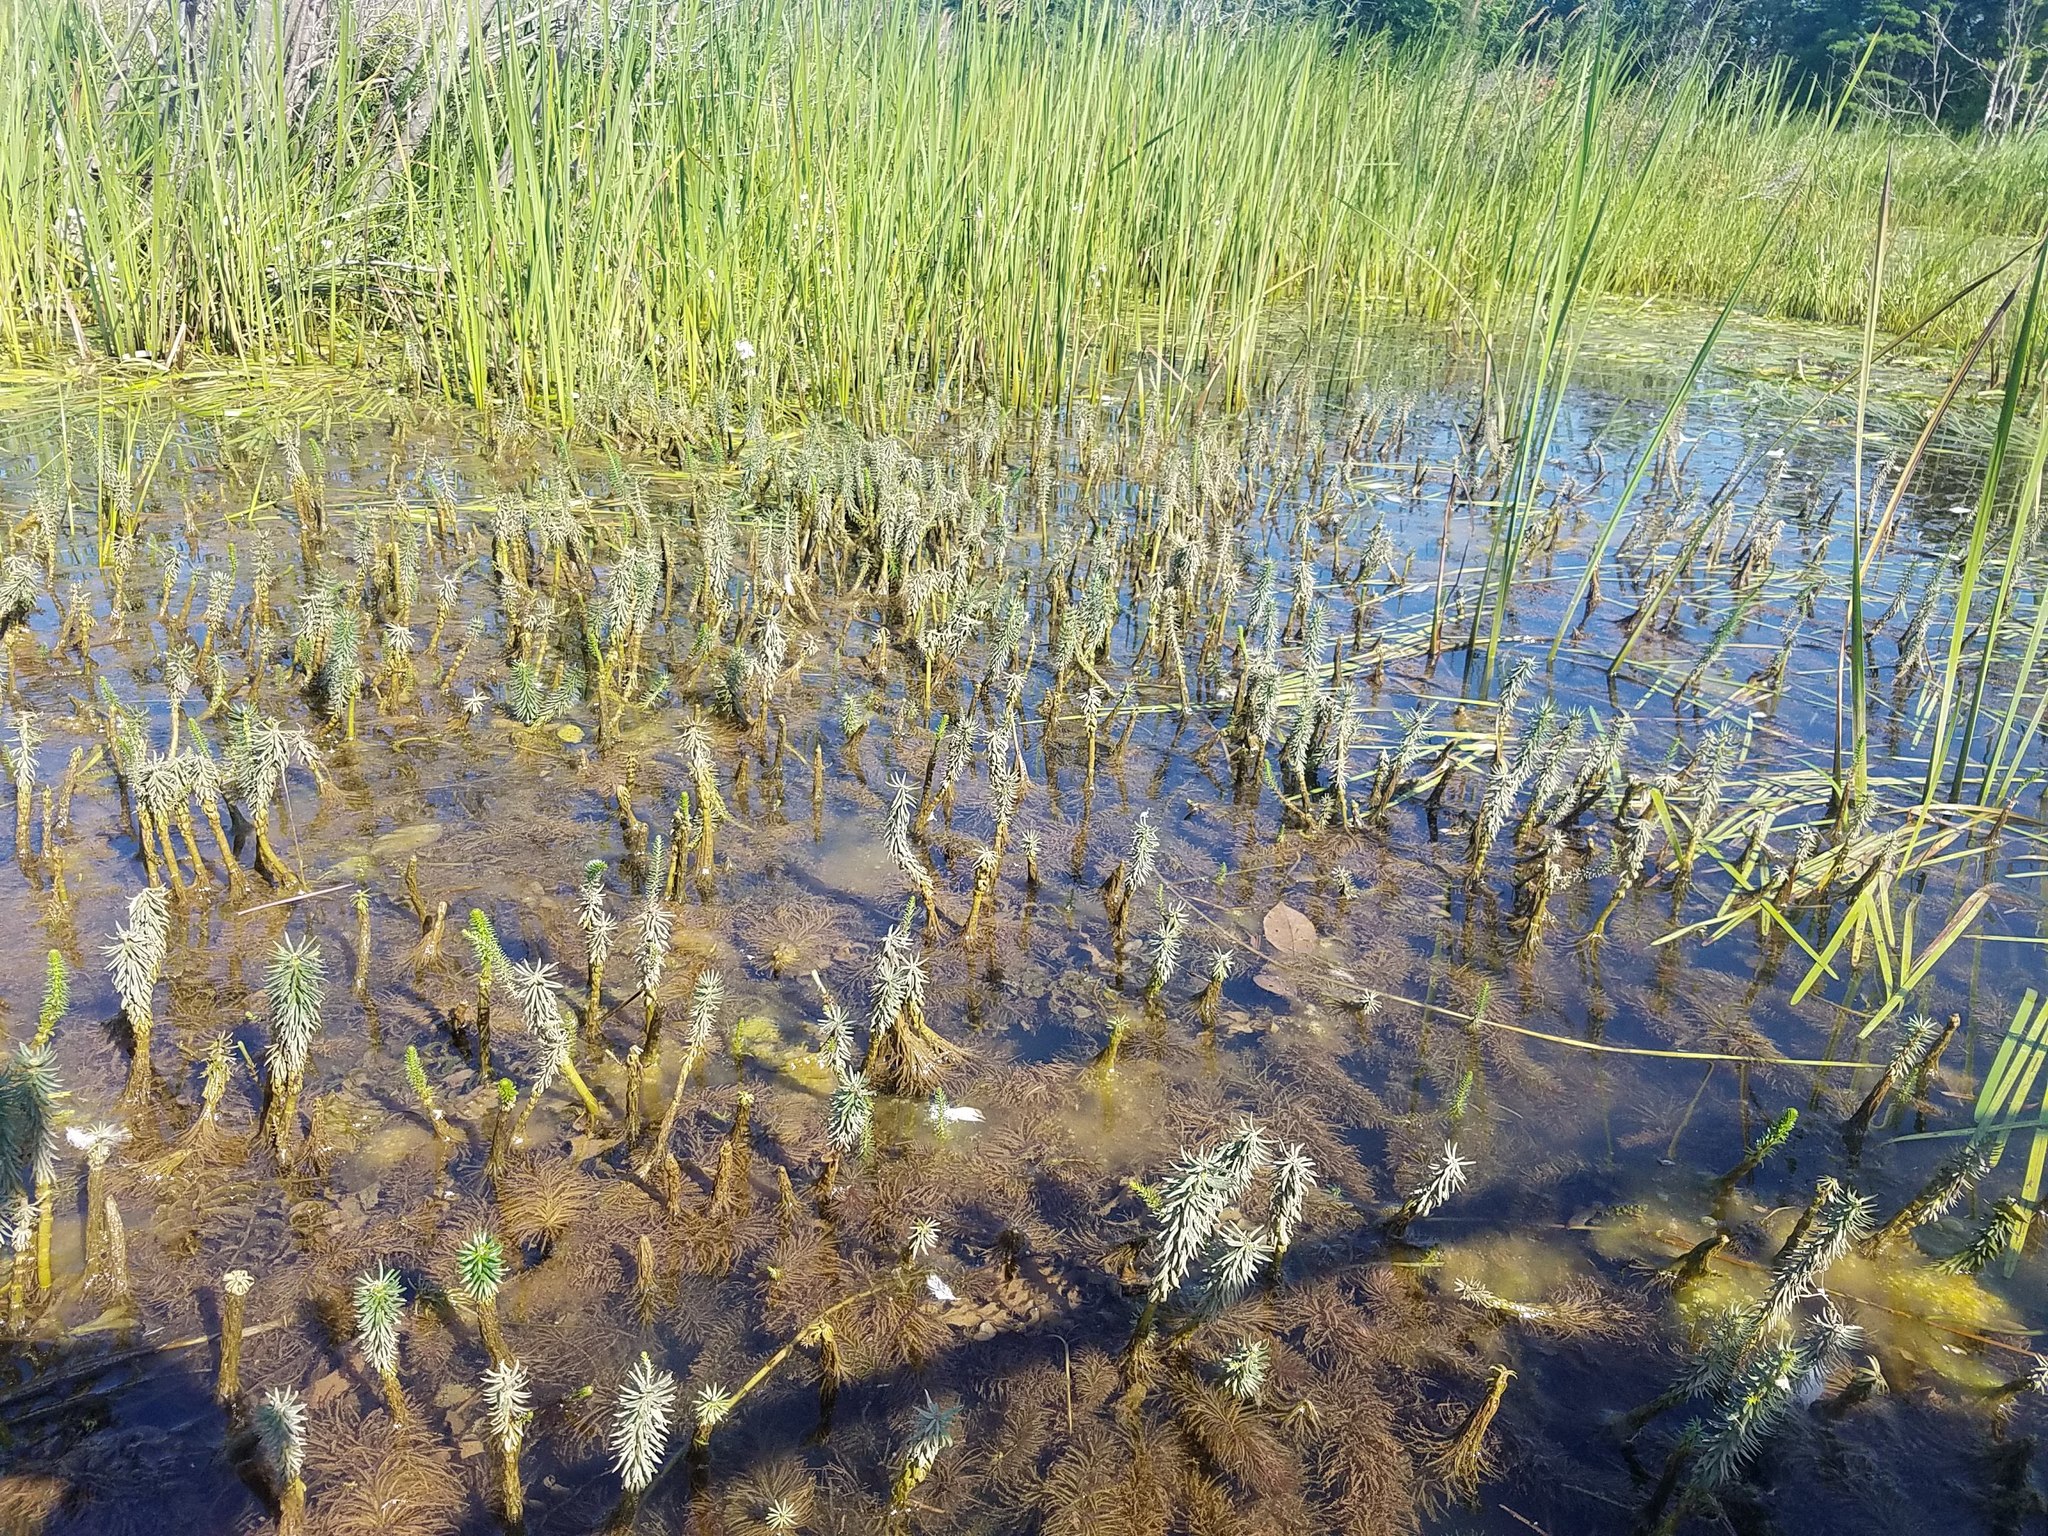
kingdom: Plantae
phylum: Tracheophyta
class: Magnoliopsida
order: Lamiales
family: Plantaginaceae
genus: Hippuris
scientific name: Hippuris vulgaris
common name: Mare's-tail
